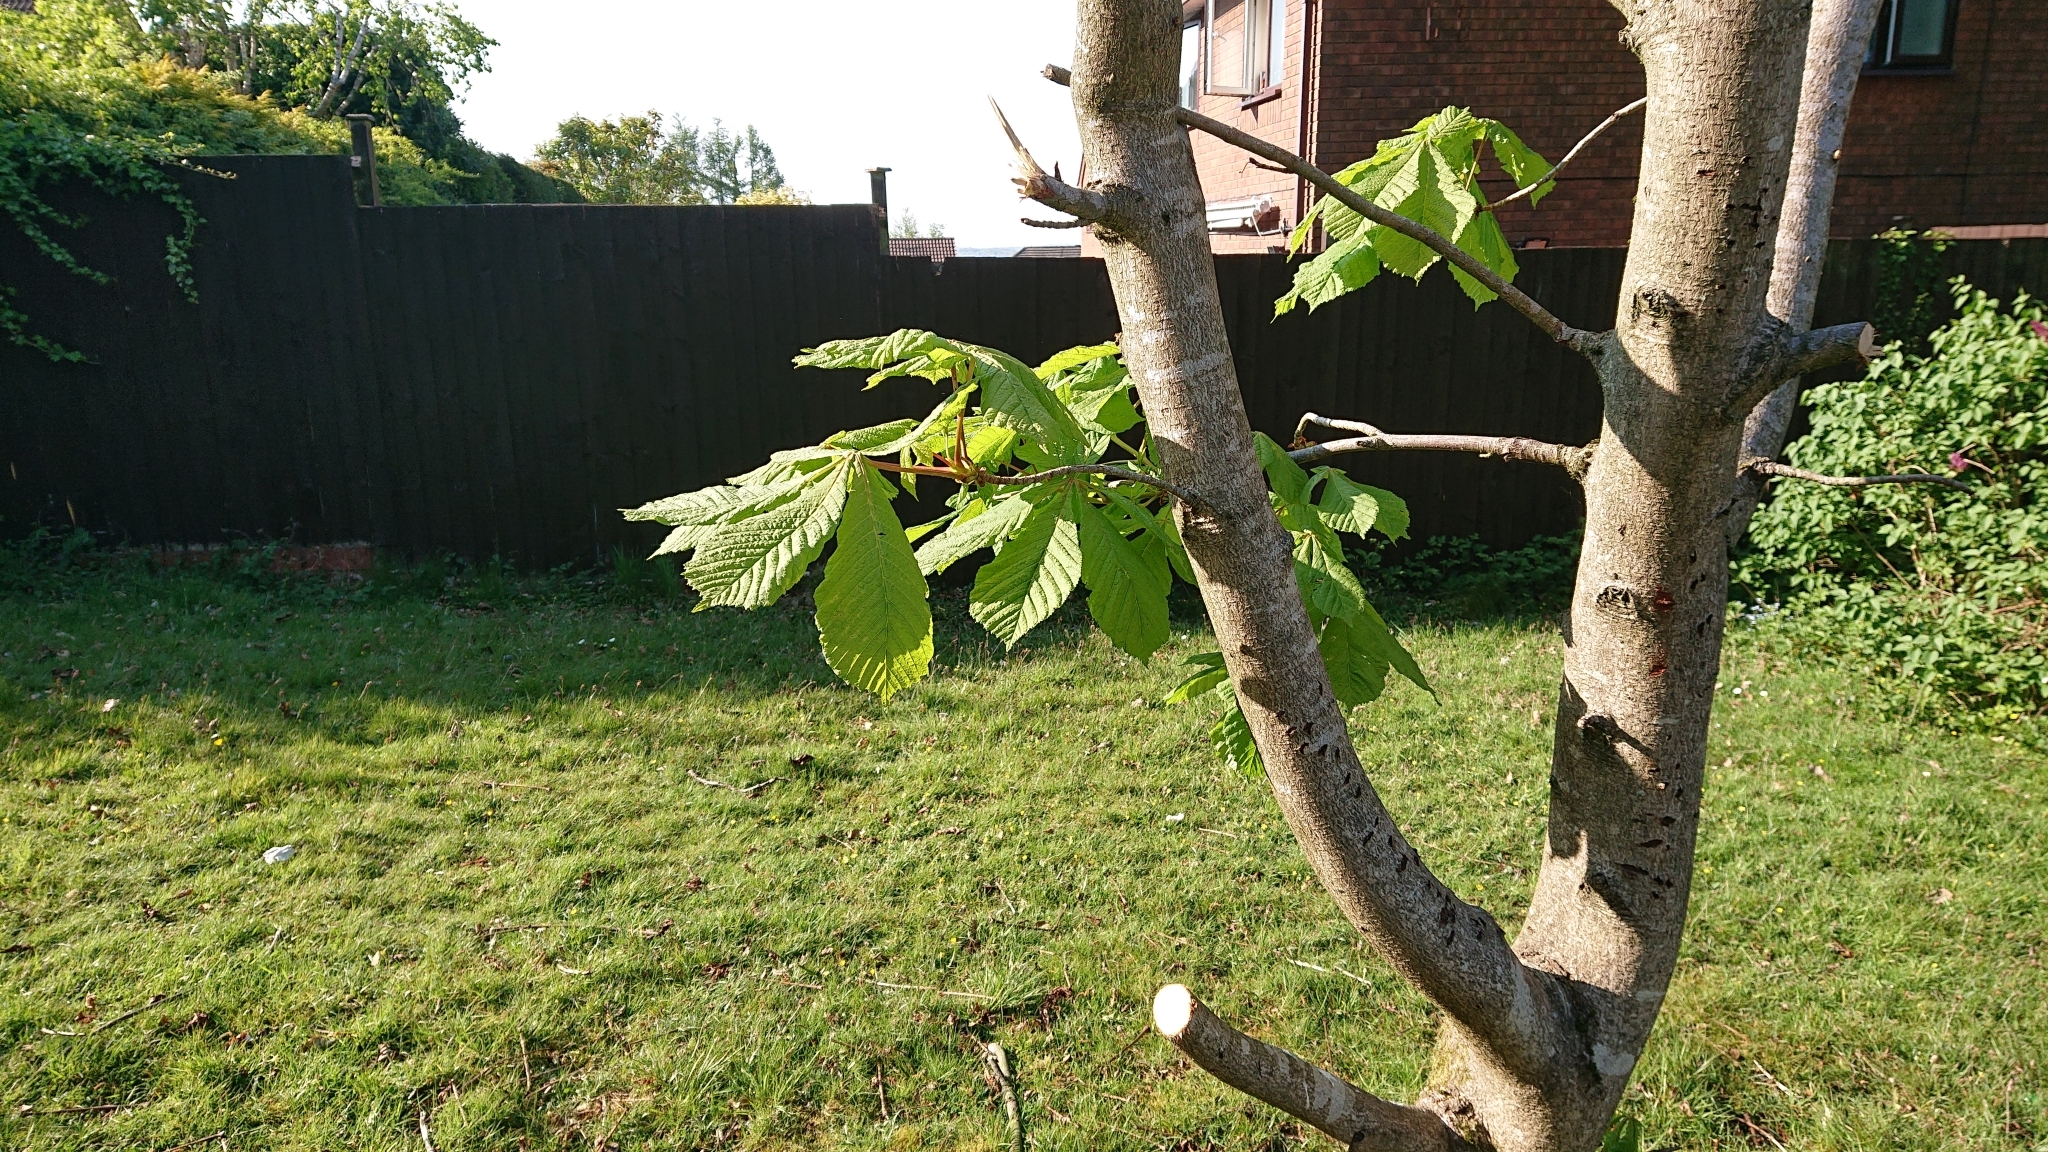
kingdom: Plantae
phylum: Tracheophyta
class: Magnoliopsida
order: Sapindales
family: Sapindaceae
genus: Aesculus
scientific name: Aesculus hippocastanum
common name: Horse-chestnut
